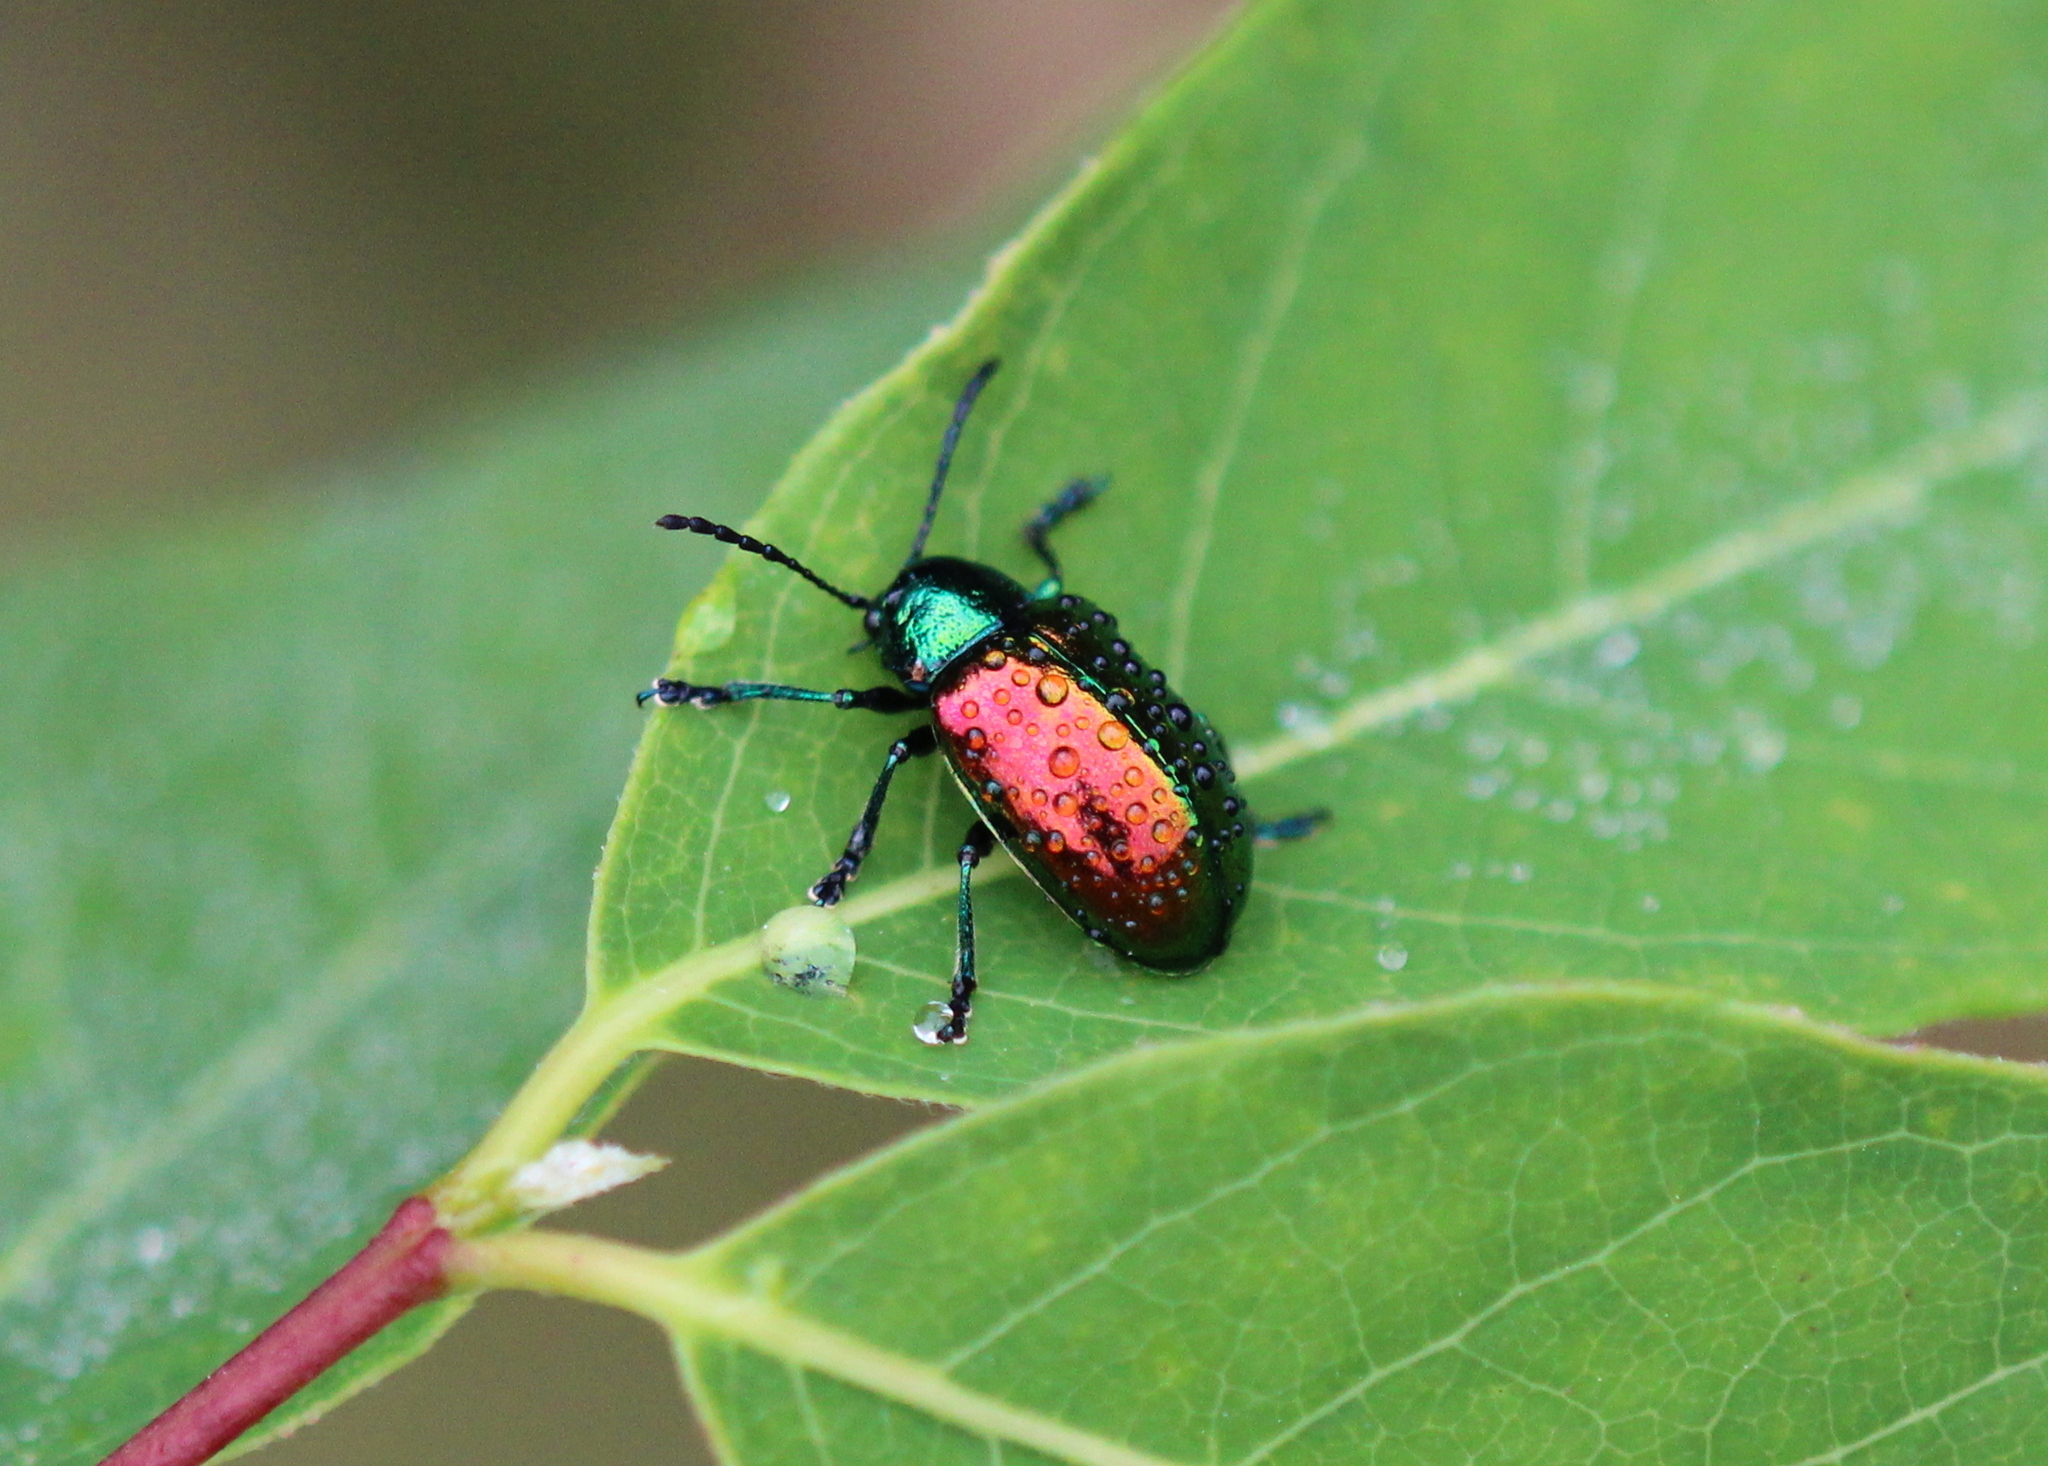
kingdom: Animalia
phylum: Arthropoda
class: Insecta
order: Coleoptera
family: Chrysomelidae
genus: Chrysochus
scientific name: Chrysochus auratus
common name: Dogbane leaf beetle
